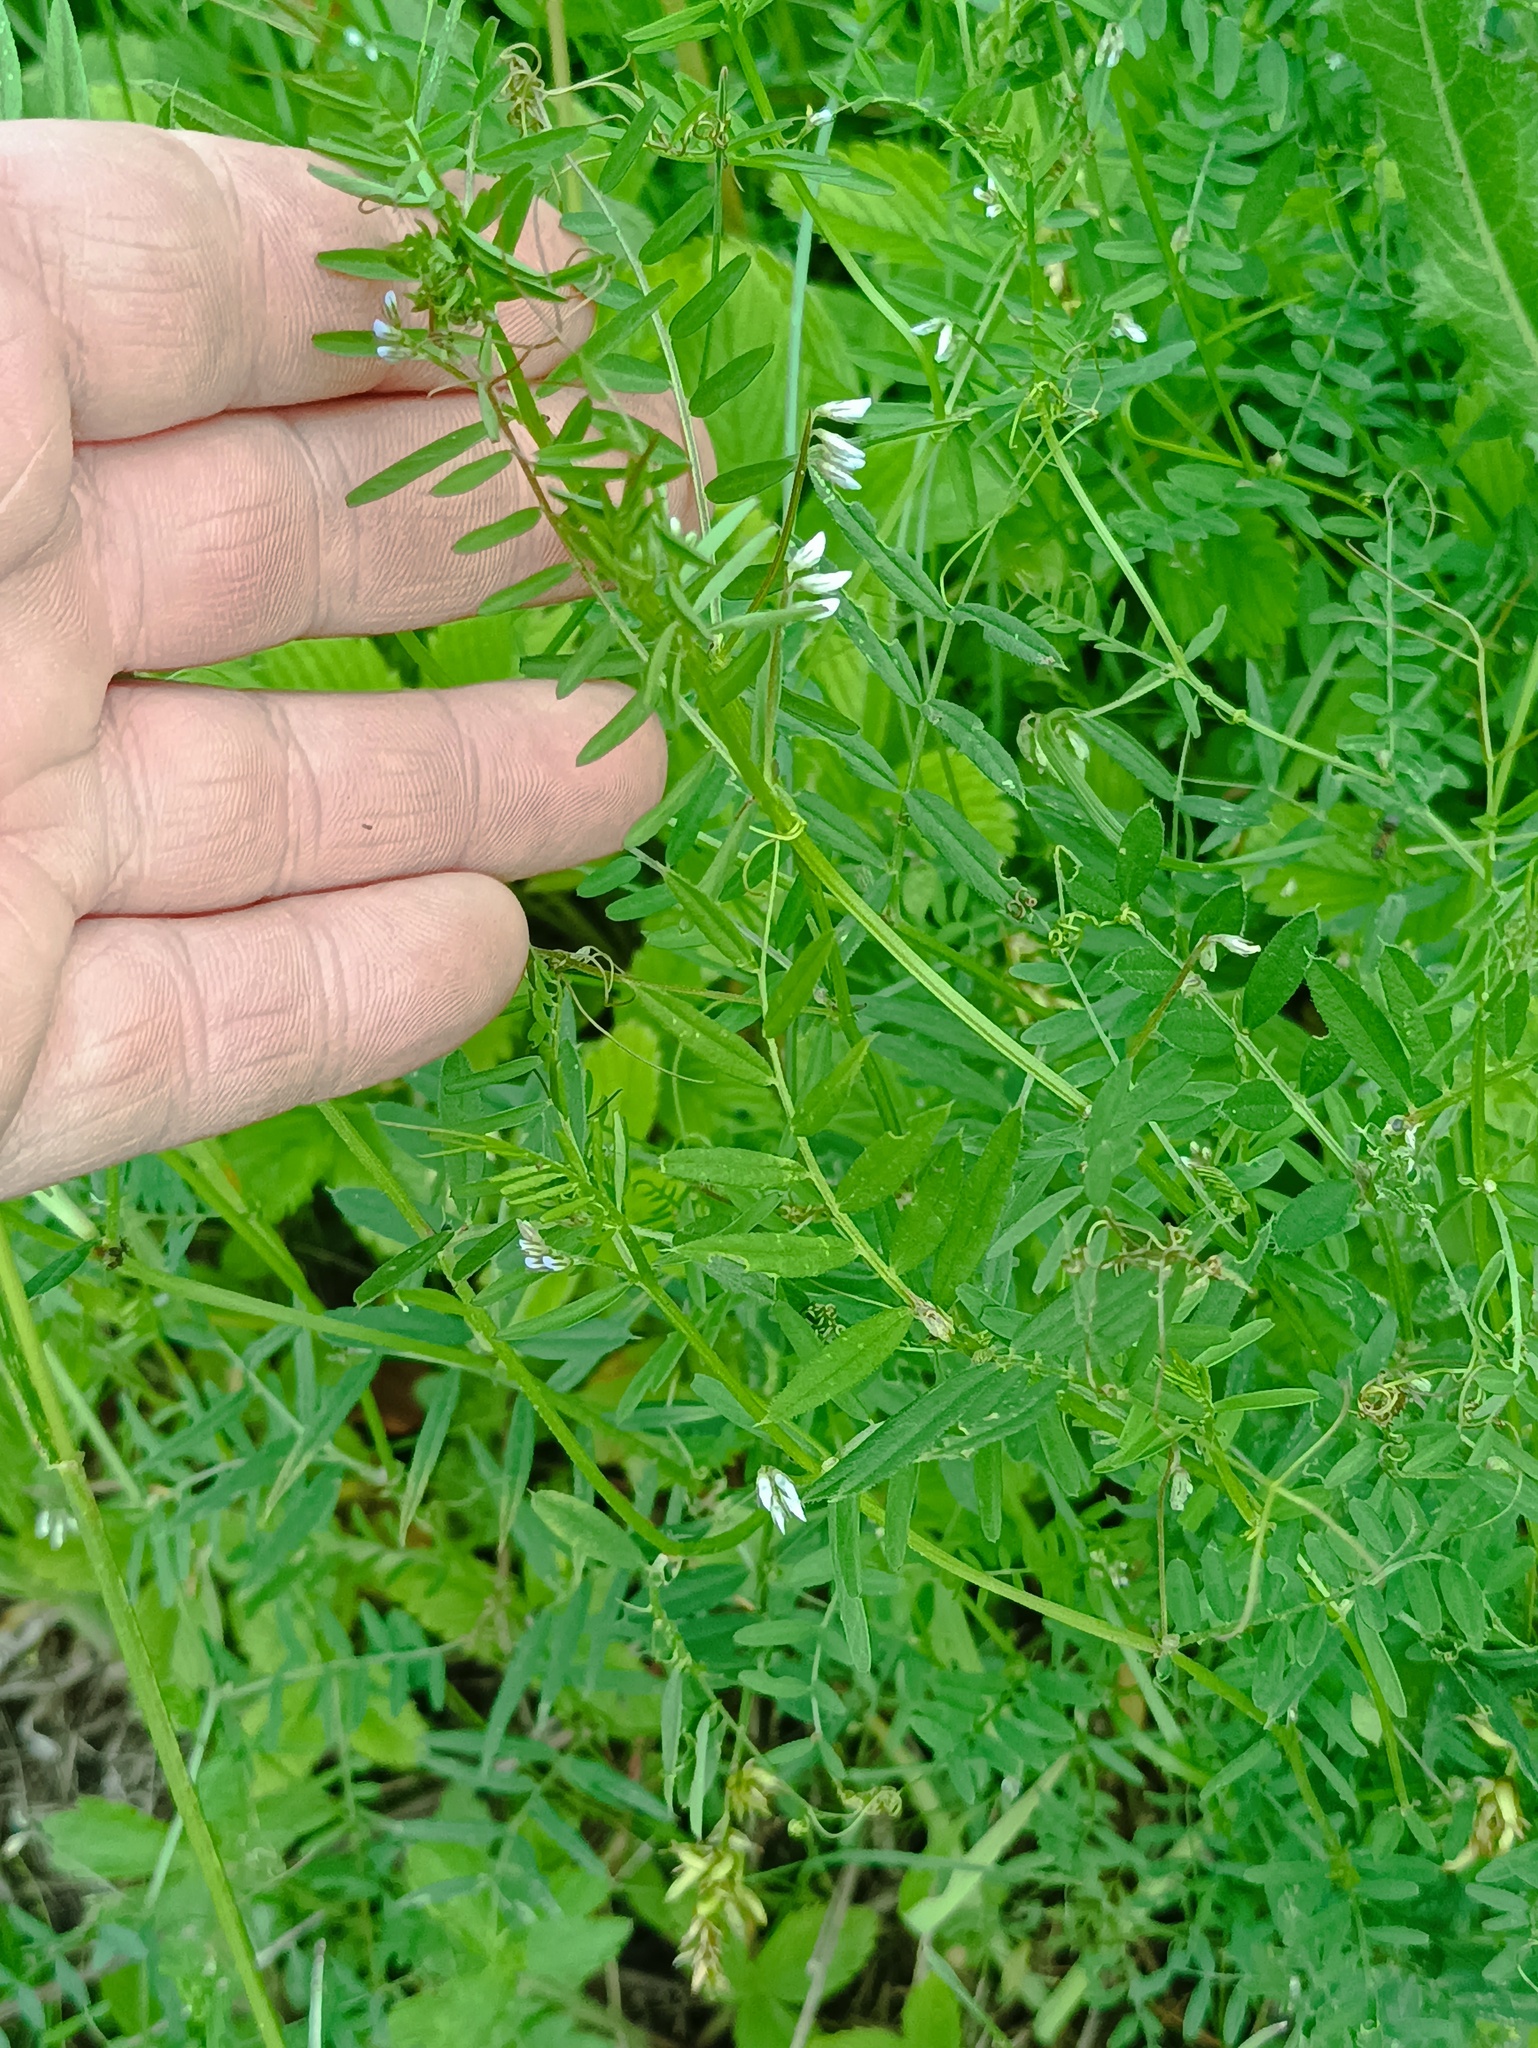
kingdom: Plantae
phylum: Tracheophyta
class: Magnoliopsida
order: Fabales
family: Fabaceae
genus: Vicia
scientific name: Vicia hirsuta
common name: Tiny vetch
